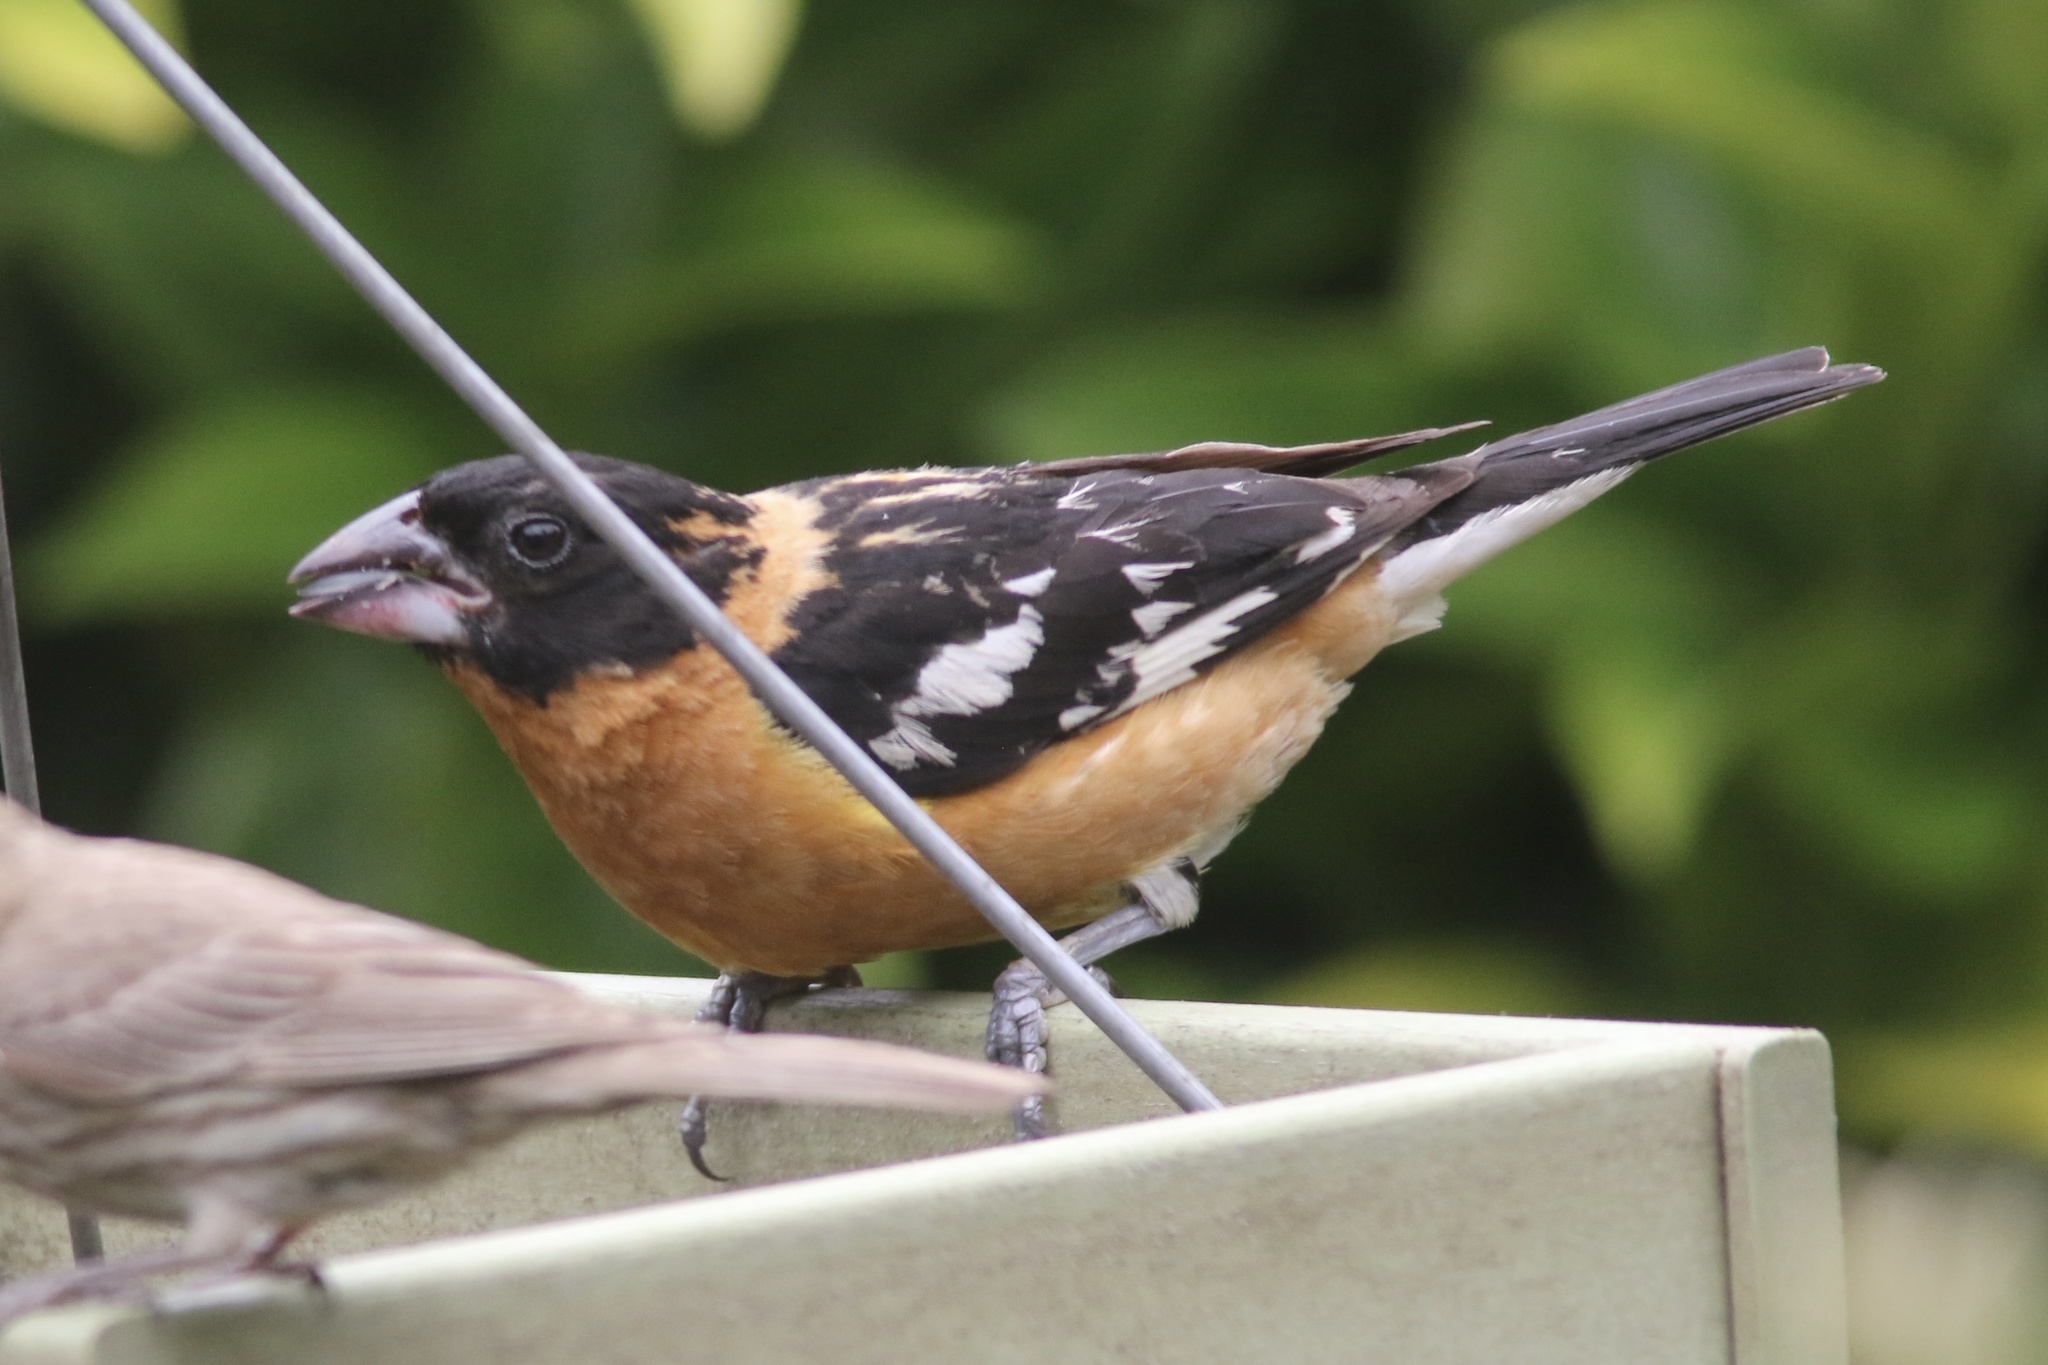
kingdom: Animalia
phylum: Chordata
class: Aves
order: Passeriformes
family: Cardinalidae
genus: Pheucticus
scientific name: Pheucticus melanocephalus
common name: Black-headed grosbeak
